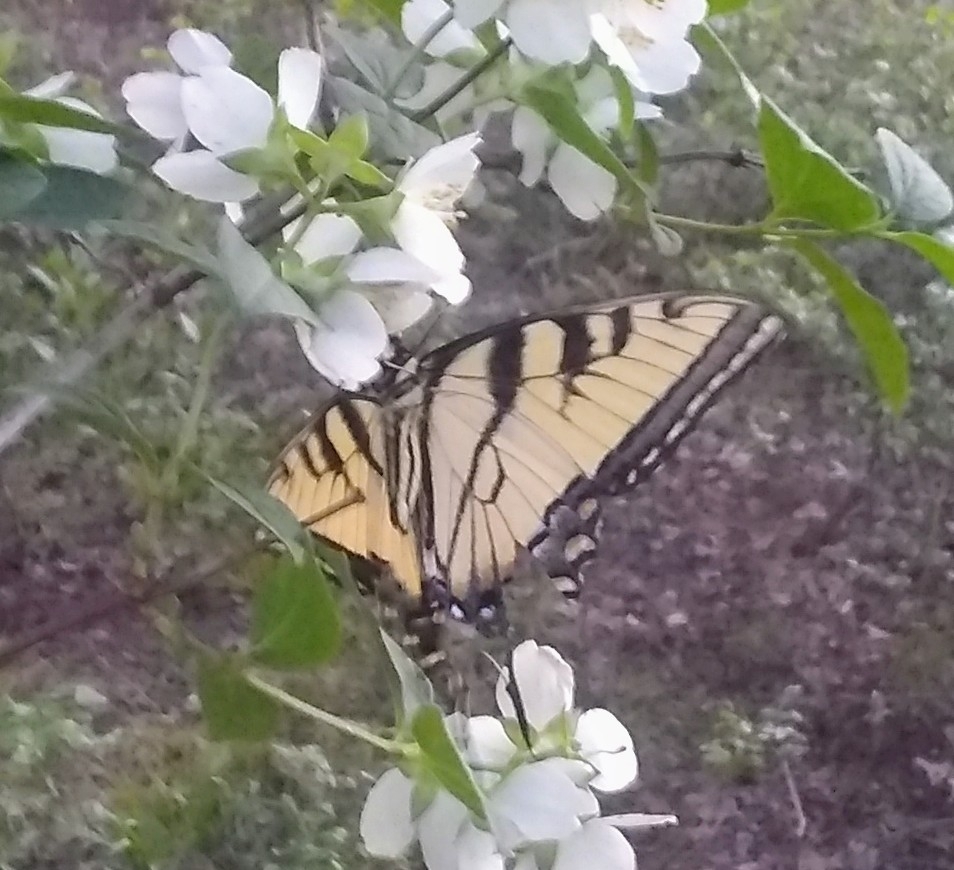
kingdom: Animalia
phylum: Arthropoda
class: Insecta
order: Lepidoptera
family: Papilionidae
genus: Papilio
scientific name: Papilio glaucus
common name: Tiger swallowtail
